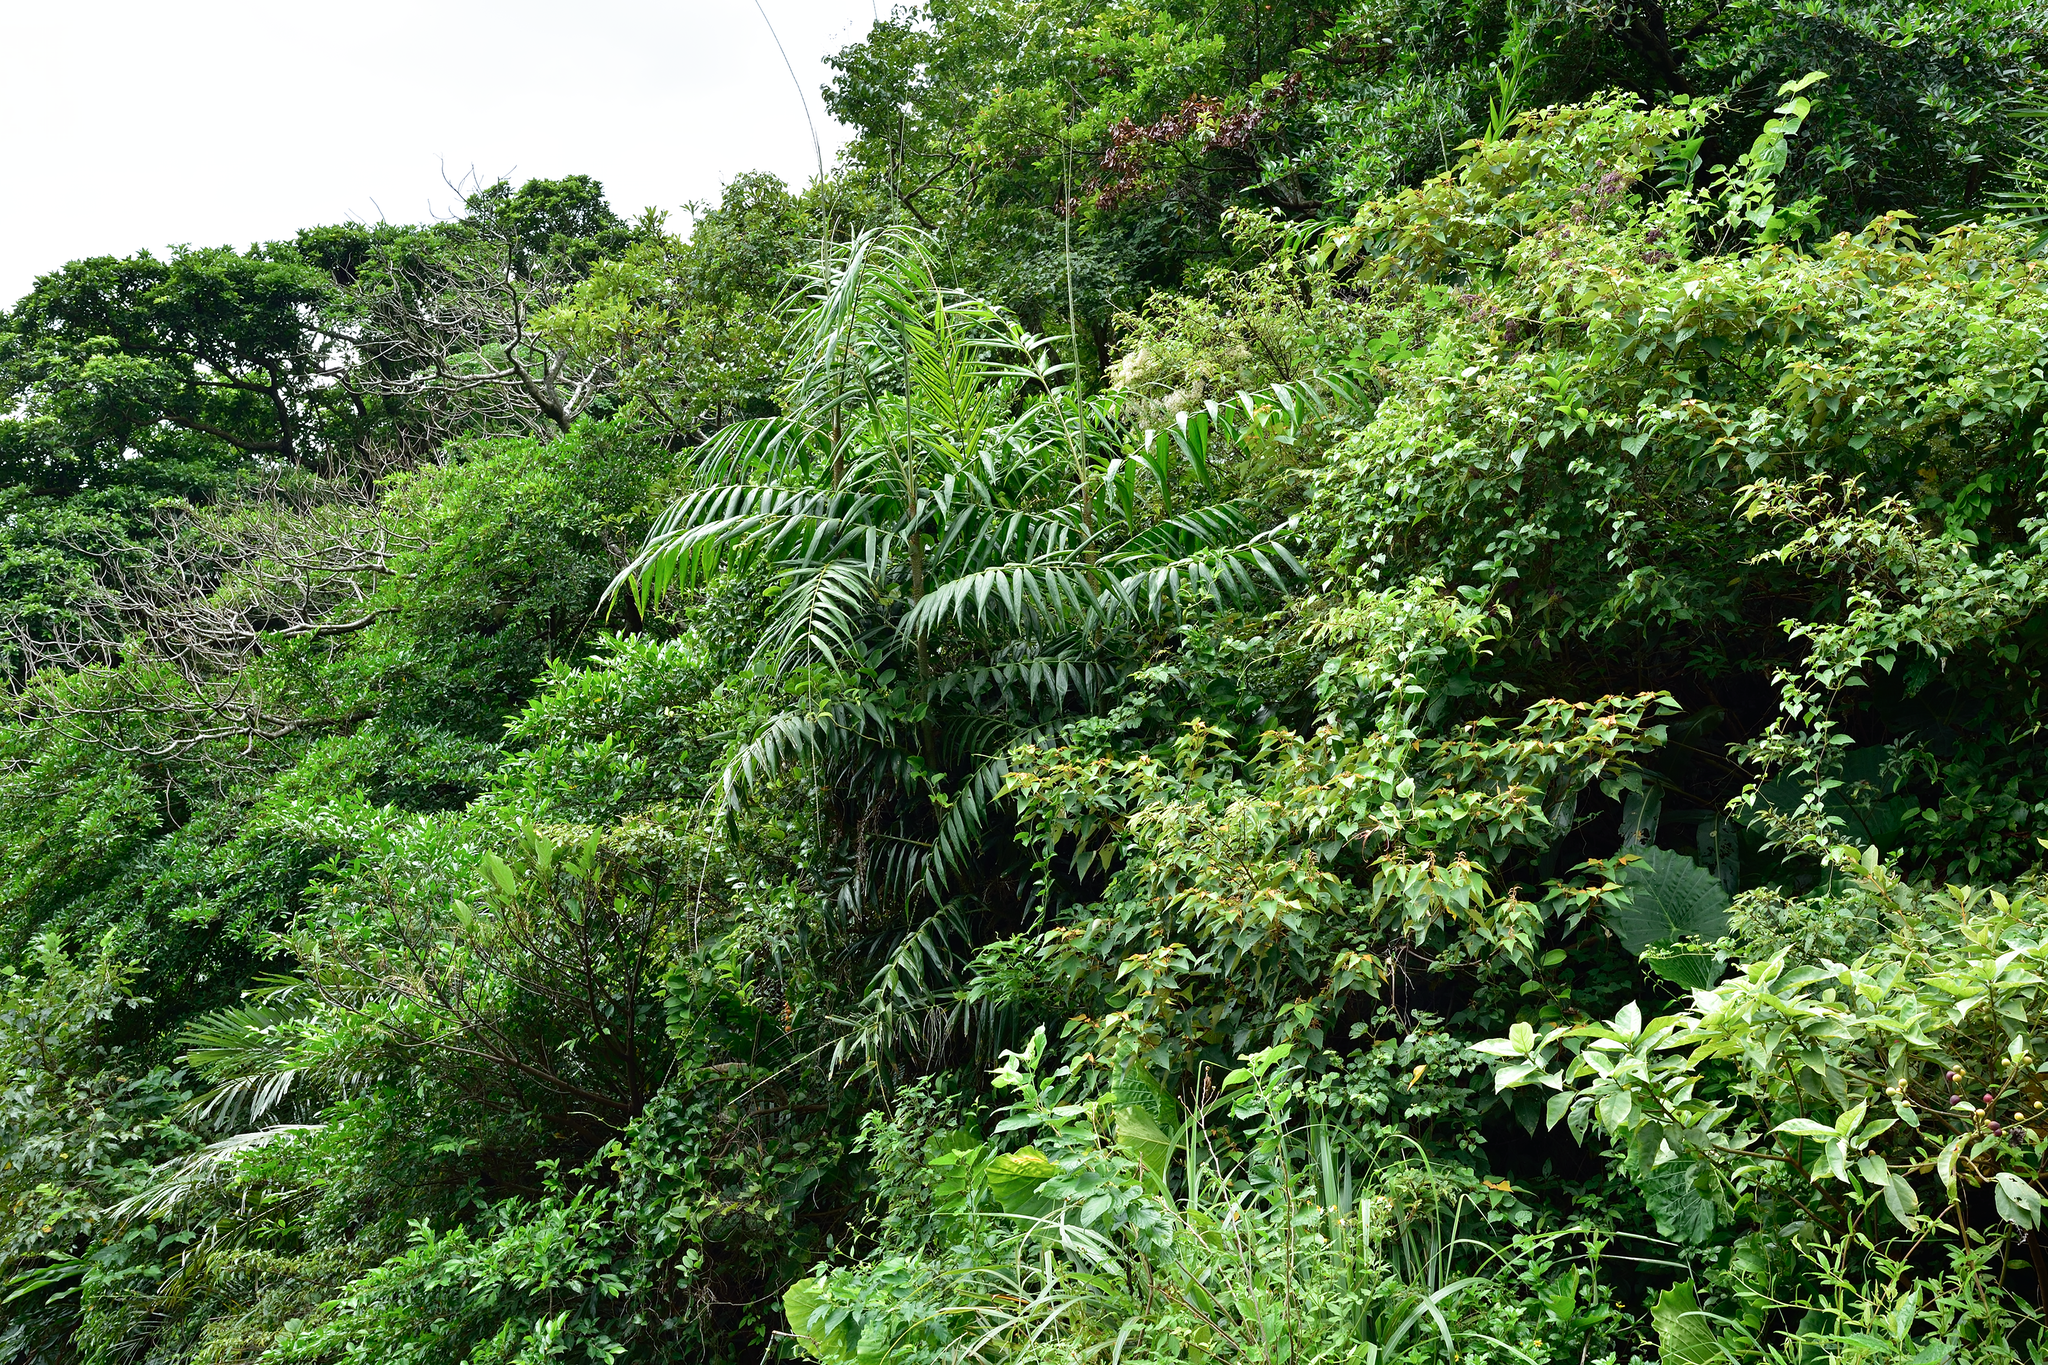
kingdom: Plantae
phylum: Tracheophyta
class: Liliopsida
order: Arecales
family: Arecaceae
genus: Calamus
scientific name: Calamus formosanus
